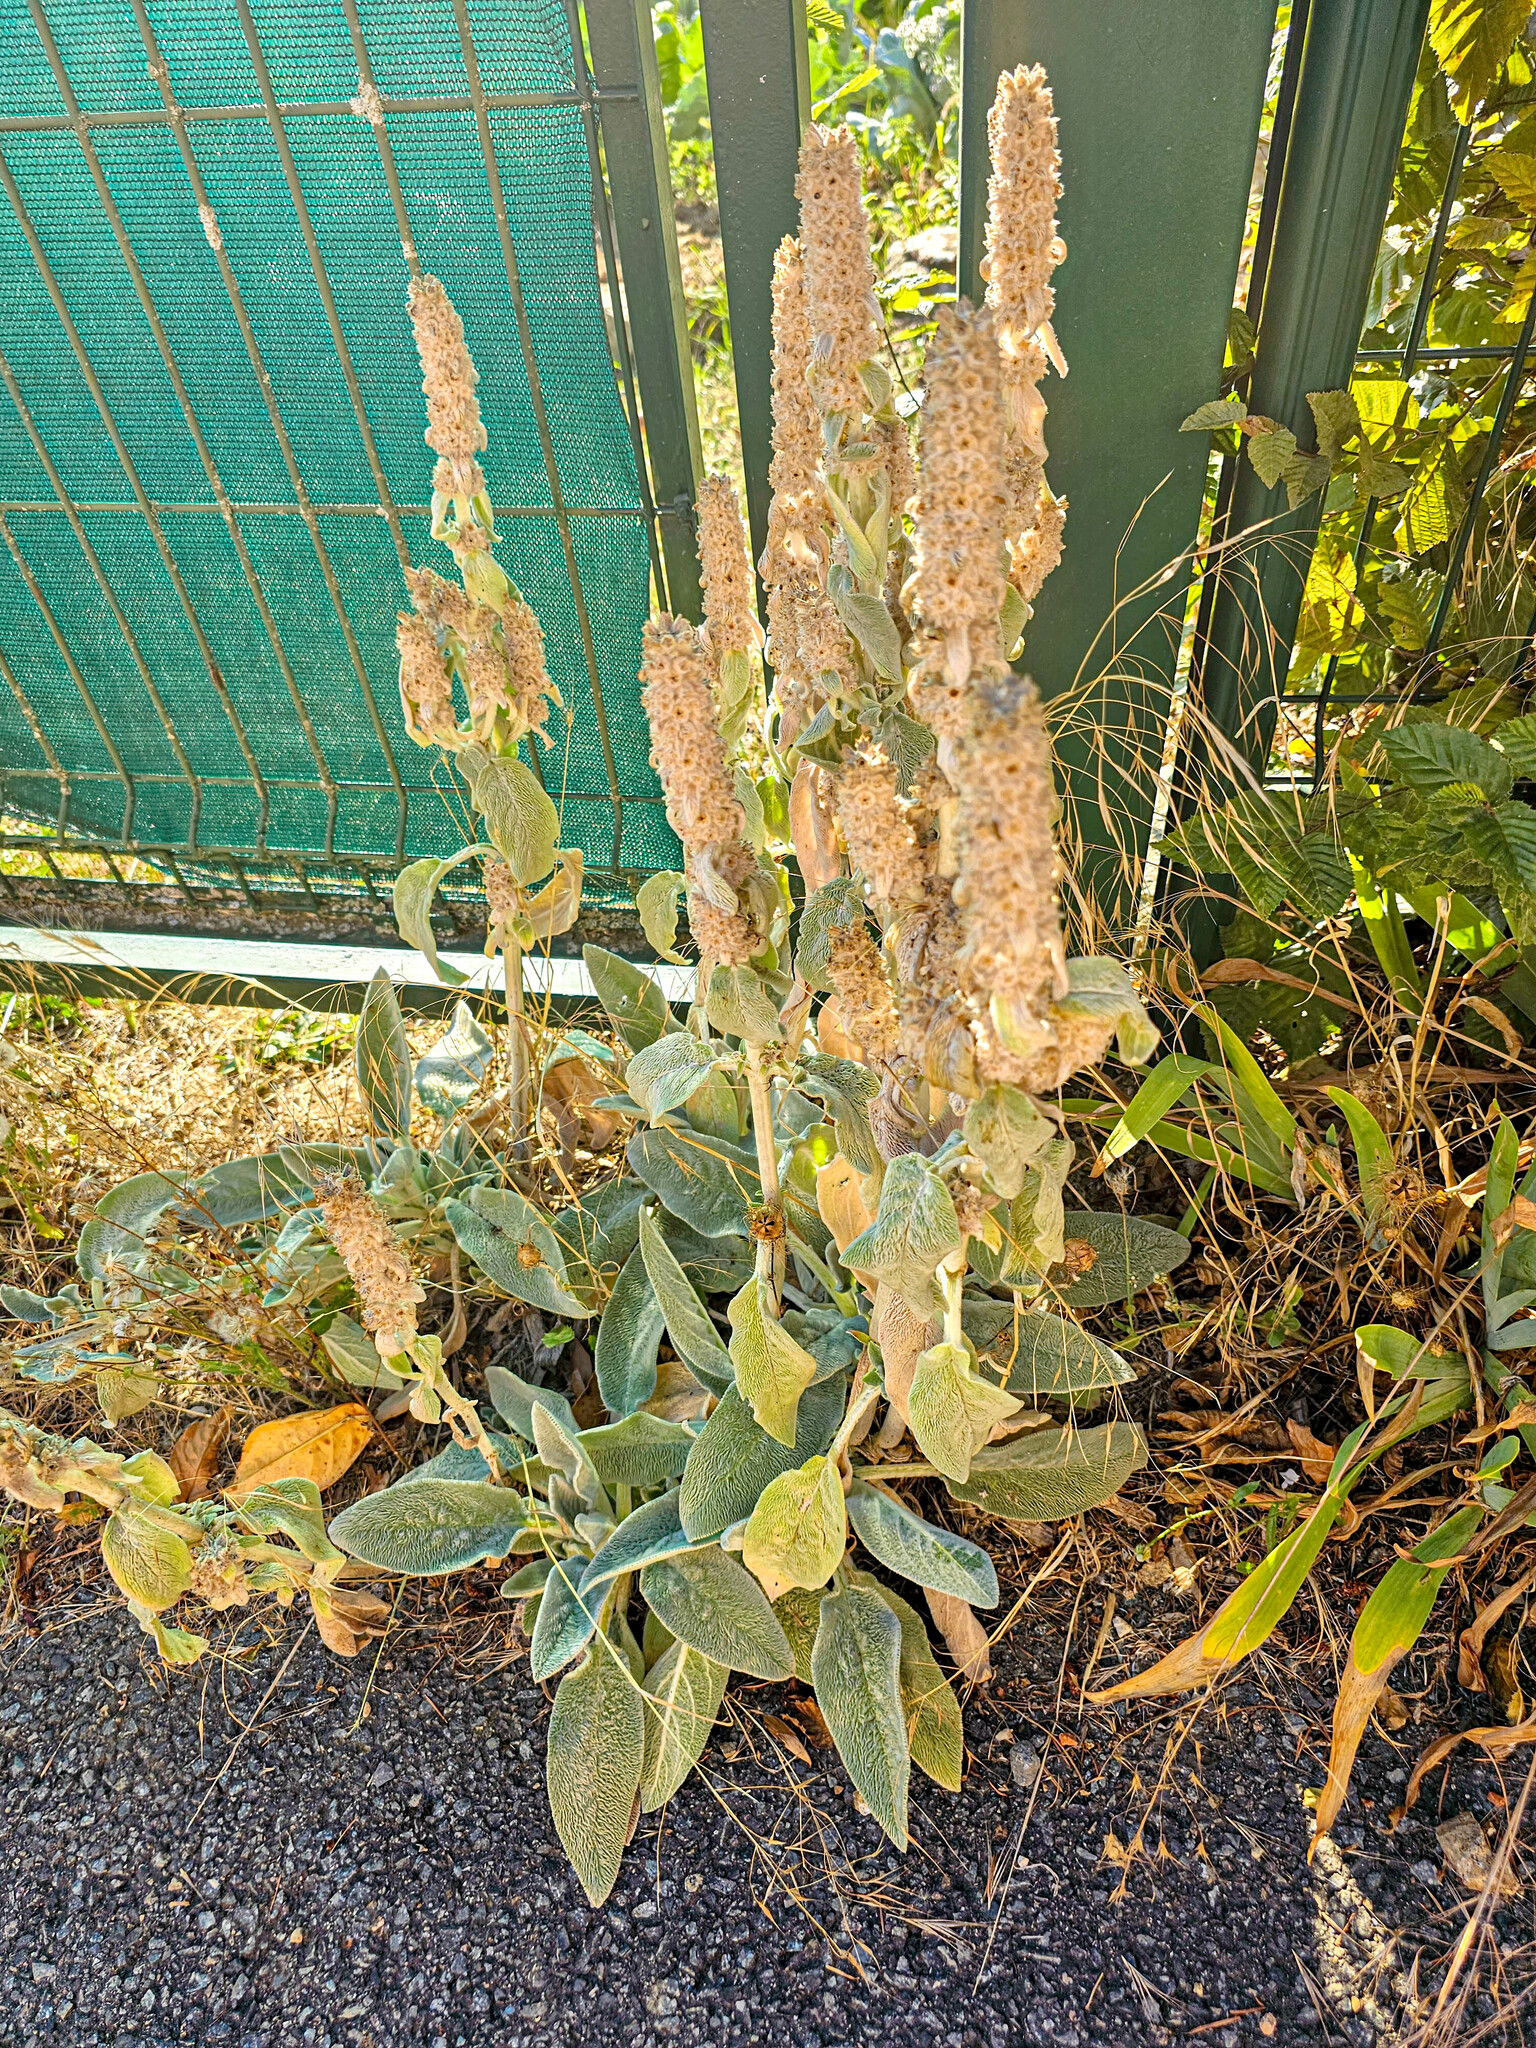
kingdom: Plantae
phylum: Tracheophyta
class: Magnoliopsida
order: Lamiales
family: Lamiaceae
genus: Stachys
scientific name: Stachys byzantina
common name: Lamb's-ear
